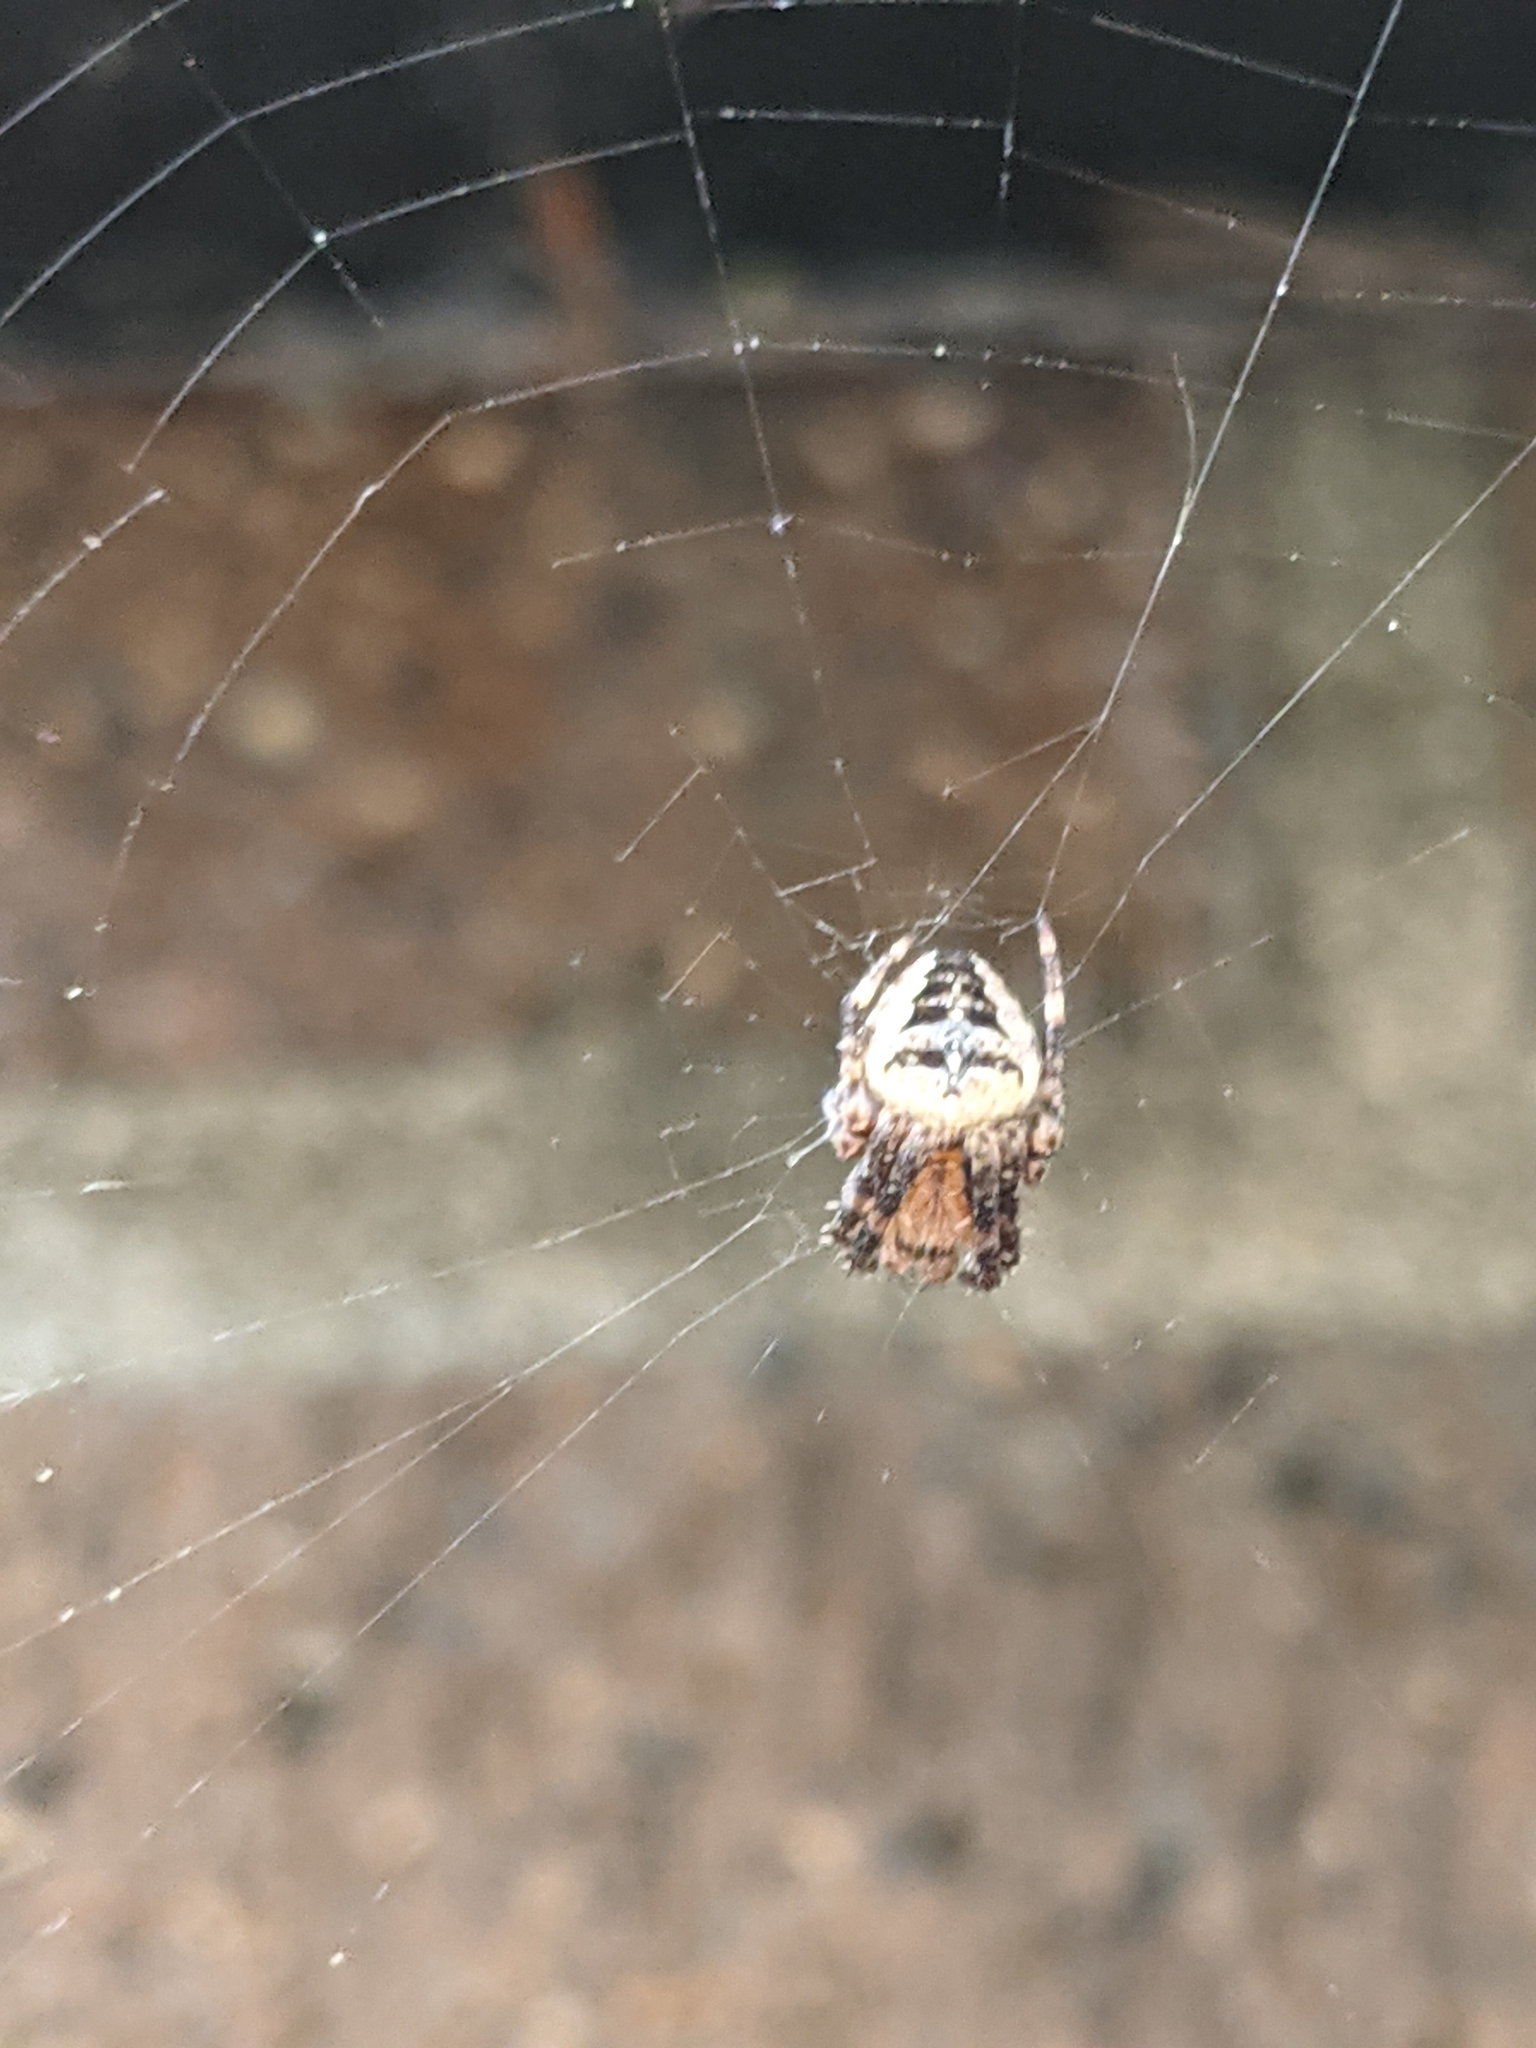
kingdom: Animalia
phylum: Arthropoda
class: Arachnida
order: Araneae
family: Araneidae
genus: Araneus
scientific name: Araneus diadematus
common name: Cross orbweaver
